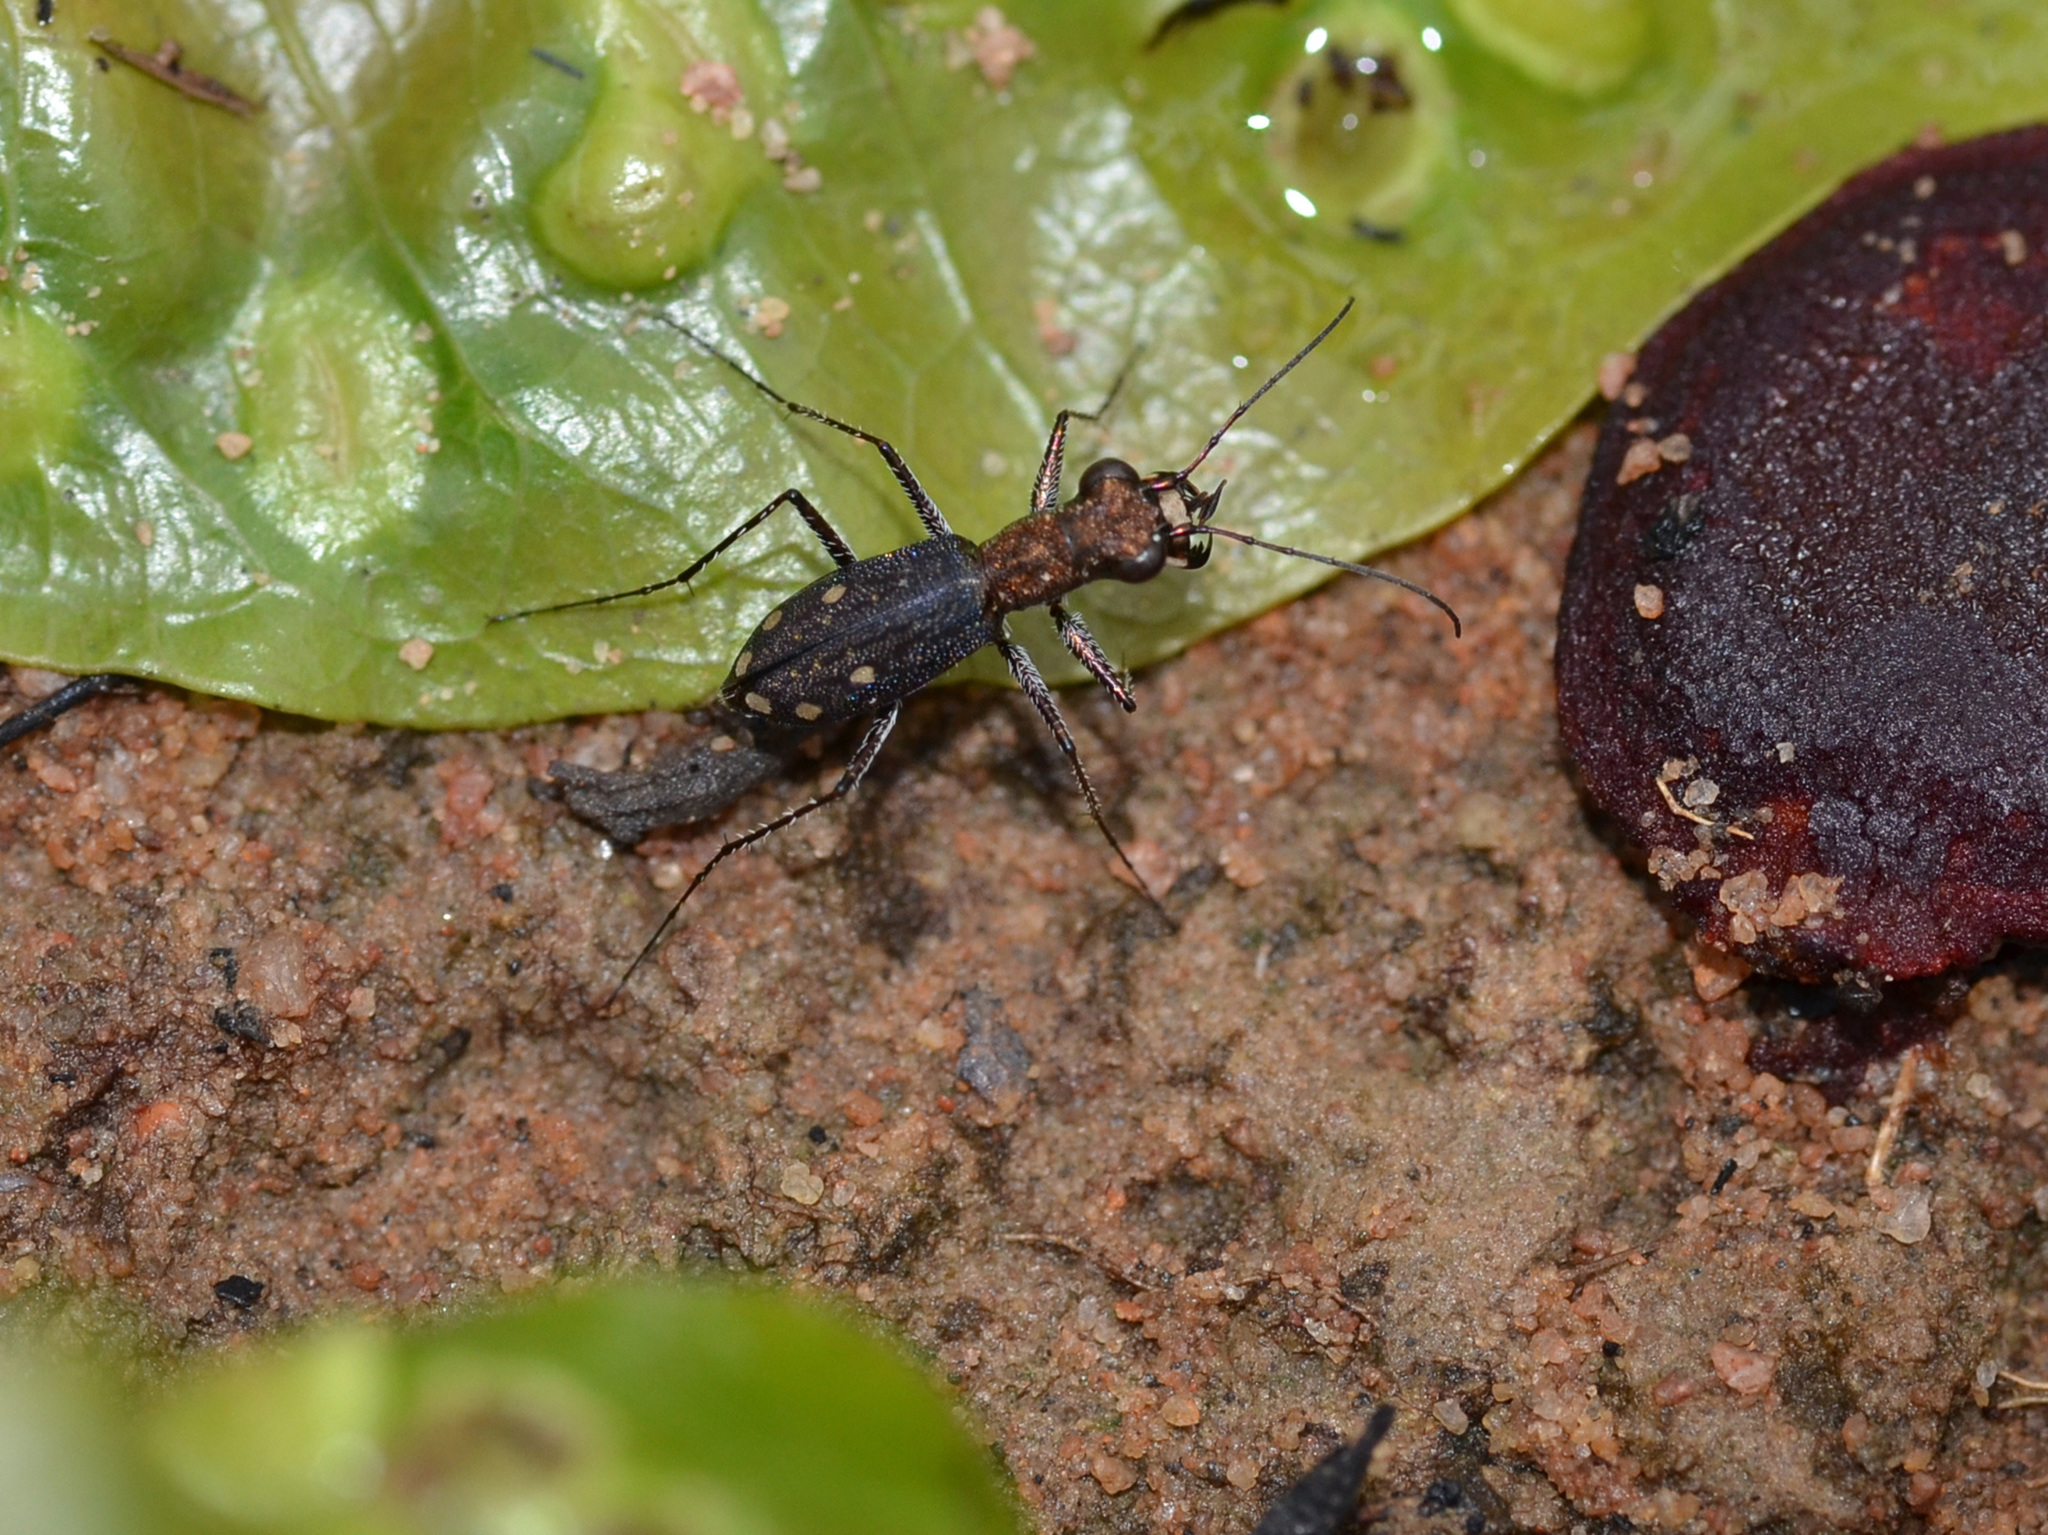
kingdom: Animalia
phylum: Arthropoda
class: Insecta
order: Coleoptera
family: Carabidae
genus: Prothymidia
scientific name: Prothymidia angusticollis
